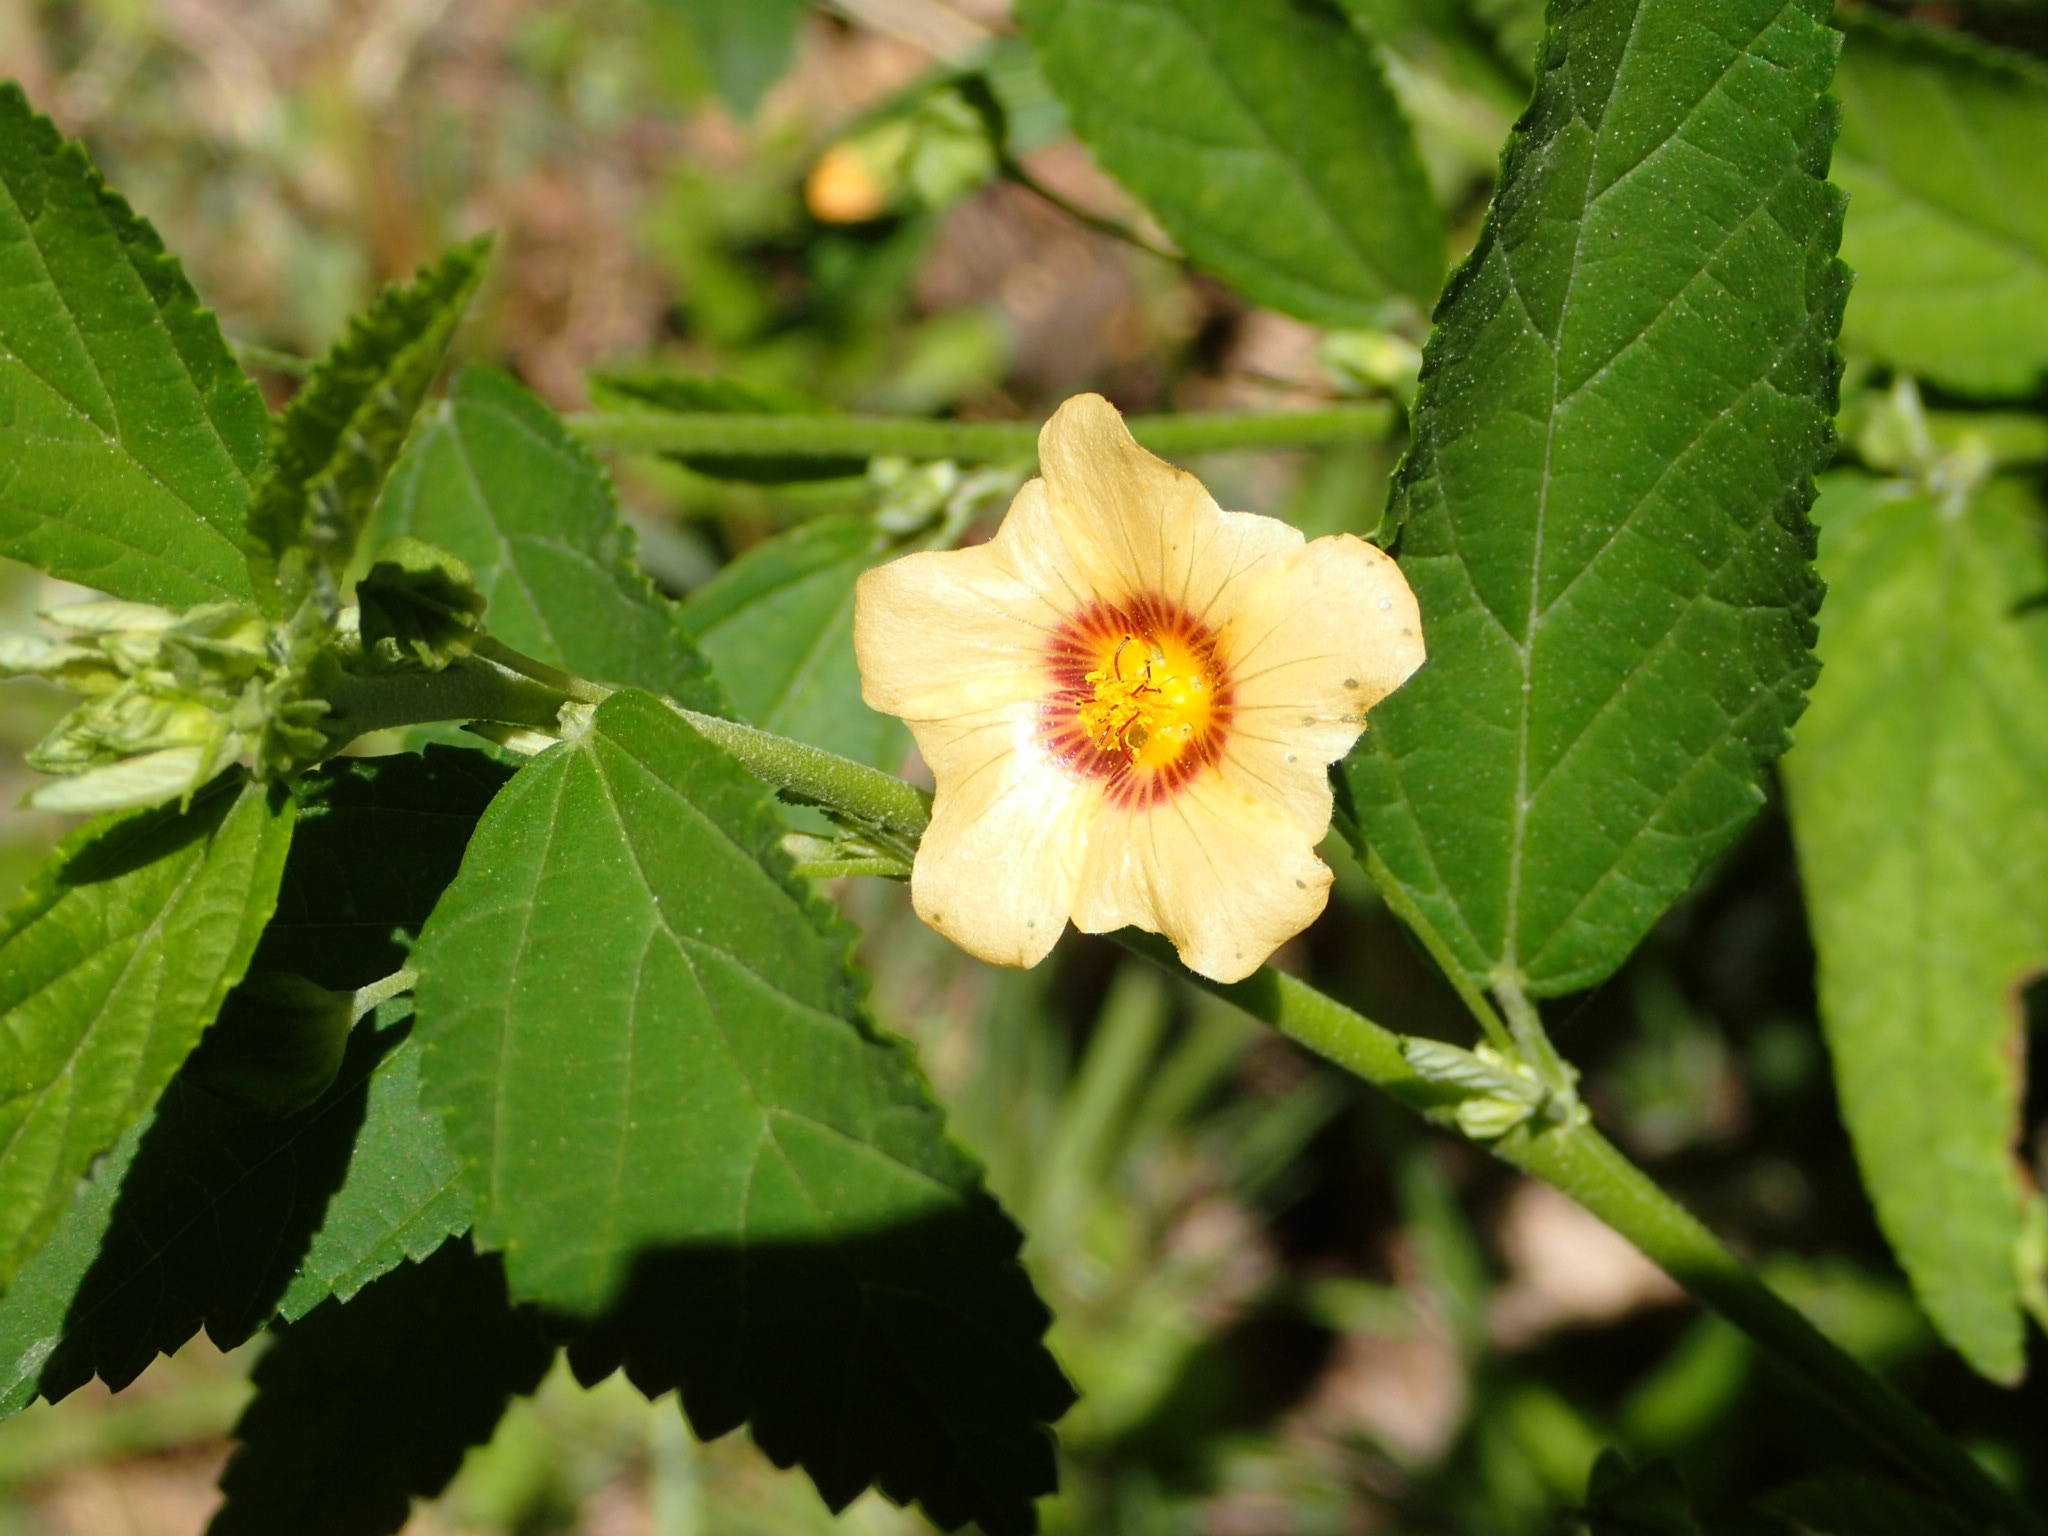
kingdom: Plantae
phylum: Tracheophyta
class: Magnoliopsida
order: Malvales
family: Malvaceae
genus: Sida
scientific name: Sida poeppigiana
